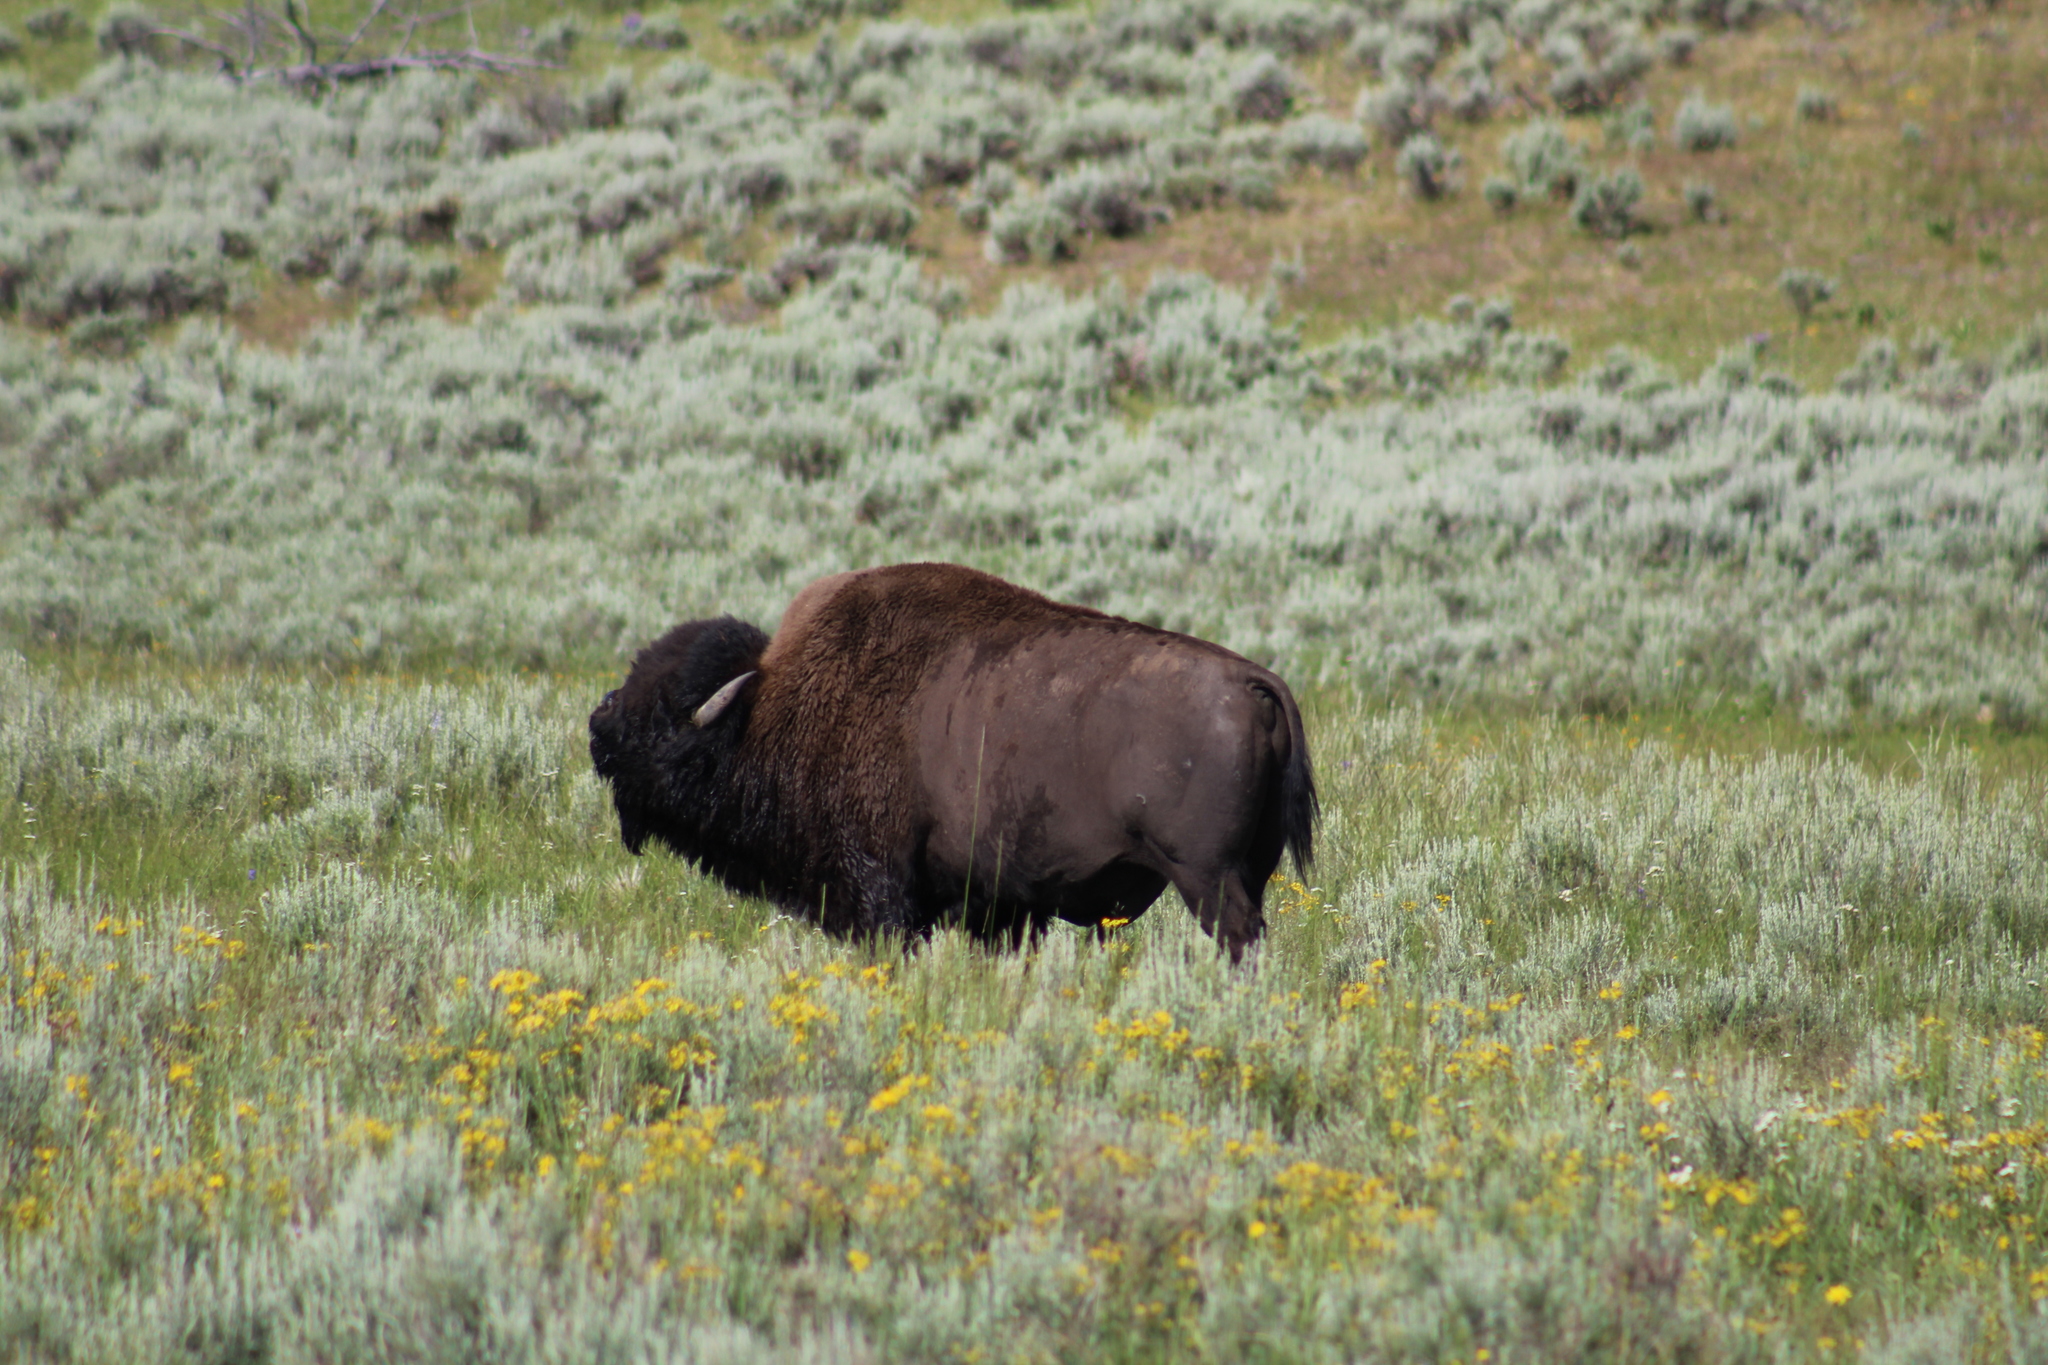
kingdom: Animalia
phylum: Chordata
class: Mammalia
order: Artiodactyla
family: Bovidae
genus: Bison
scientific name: Bison bison
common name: American bison
